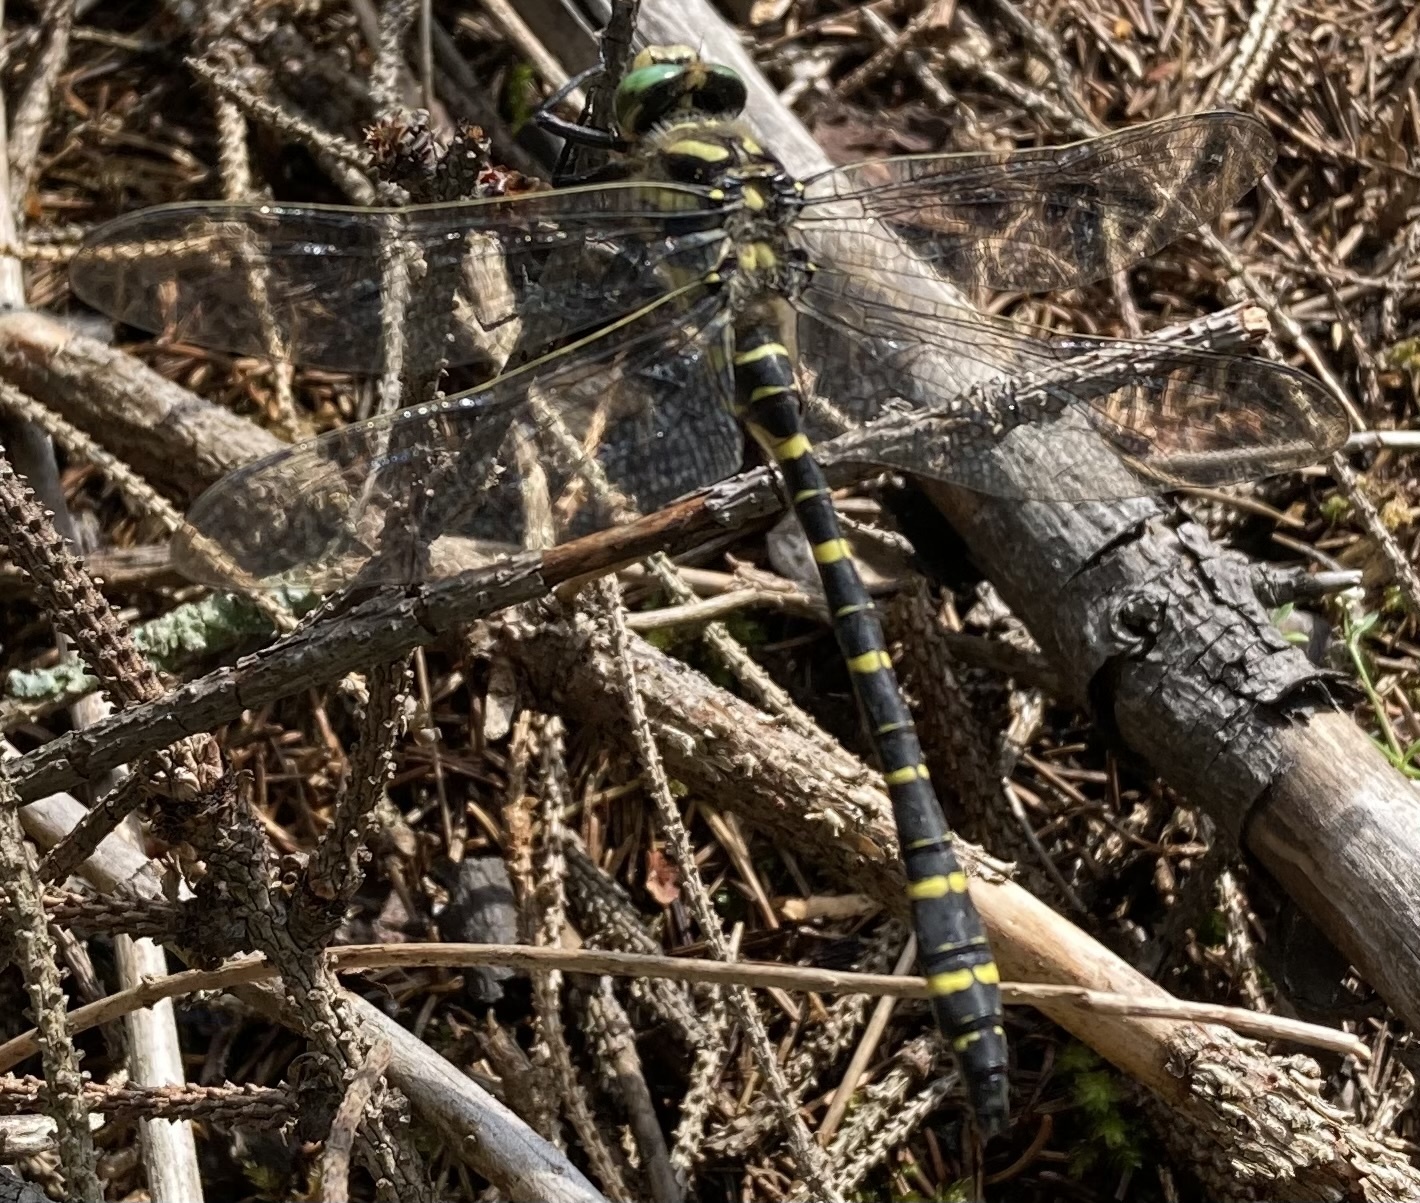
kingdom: Animalia
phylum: Arthropoda
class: Insecta
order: Odonata
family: Cordulegastridae
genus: Cordulegaster
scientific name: Cordulegaster boltonii
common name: Golden-ringed dragonfly
